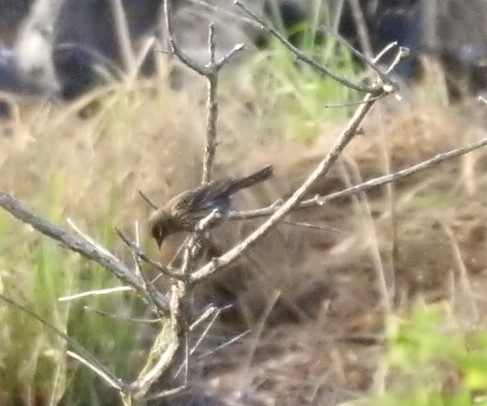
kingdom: Animalia
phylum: Chordata
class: Aves
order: Passeriformes
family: Icteridae
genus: Agelaius
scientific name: Agelaius phoeniceus
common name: Red-winged blackbird
